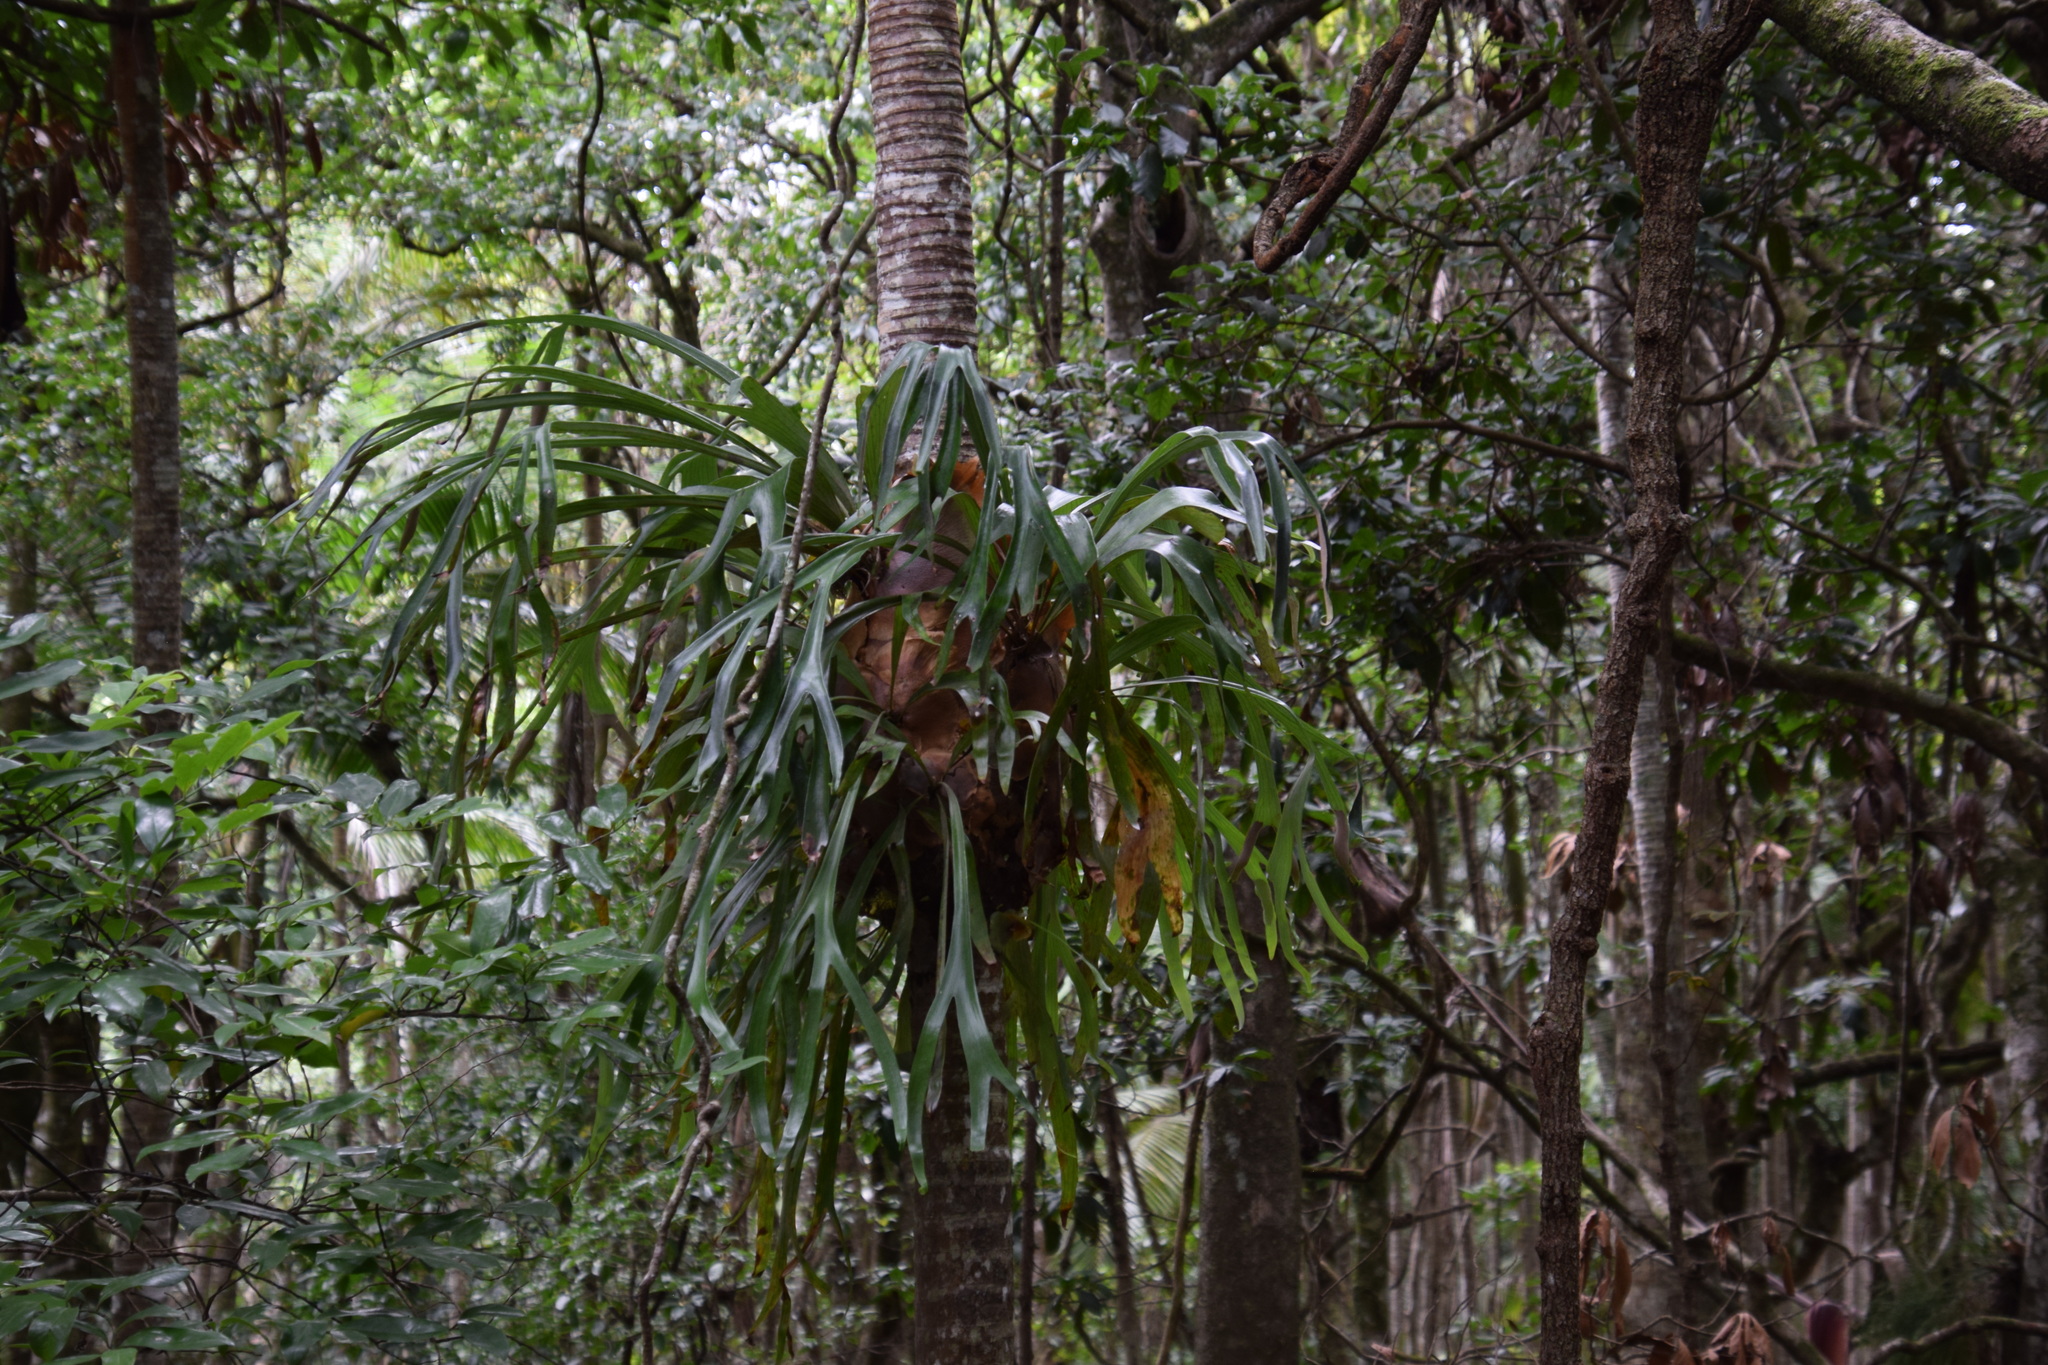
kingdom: Plantae
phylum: Tracheophyta
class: Polypodiopsida
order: Polypodiales
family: Polypodiaceae
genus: Platycerium
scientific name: Platycerium bifurcatum
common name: Elkhorn fern
